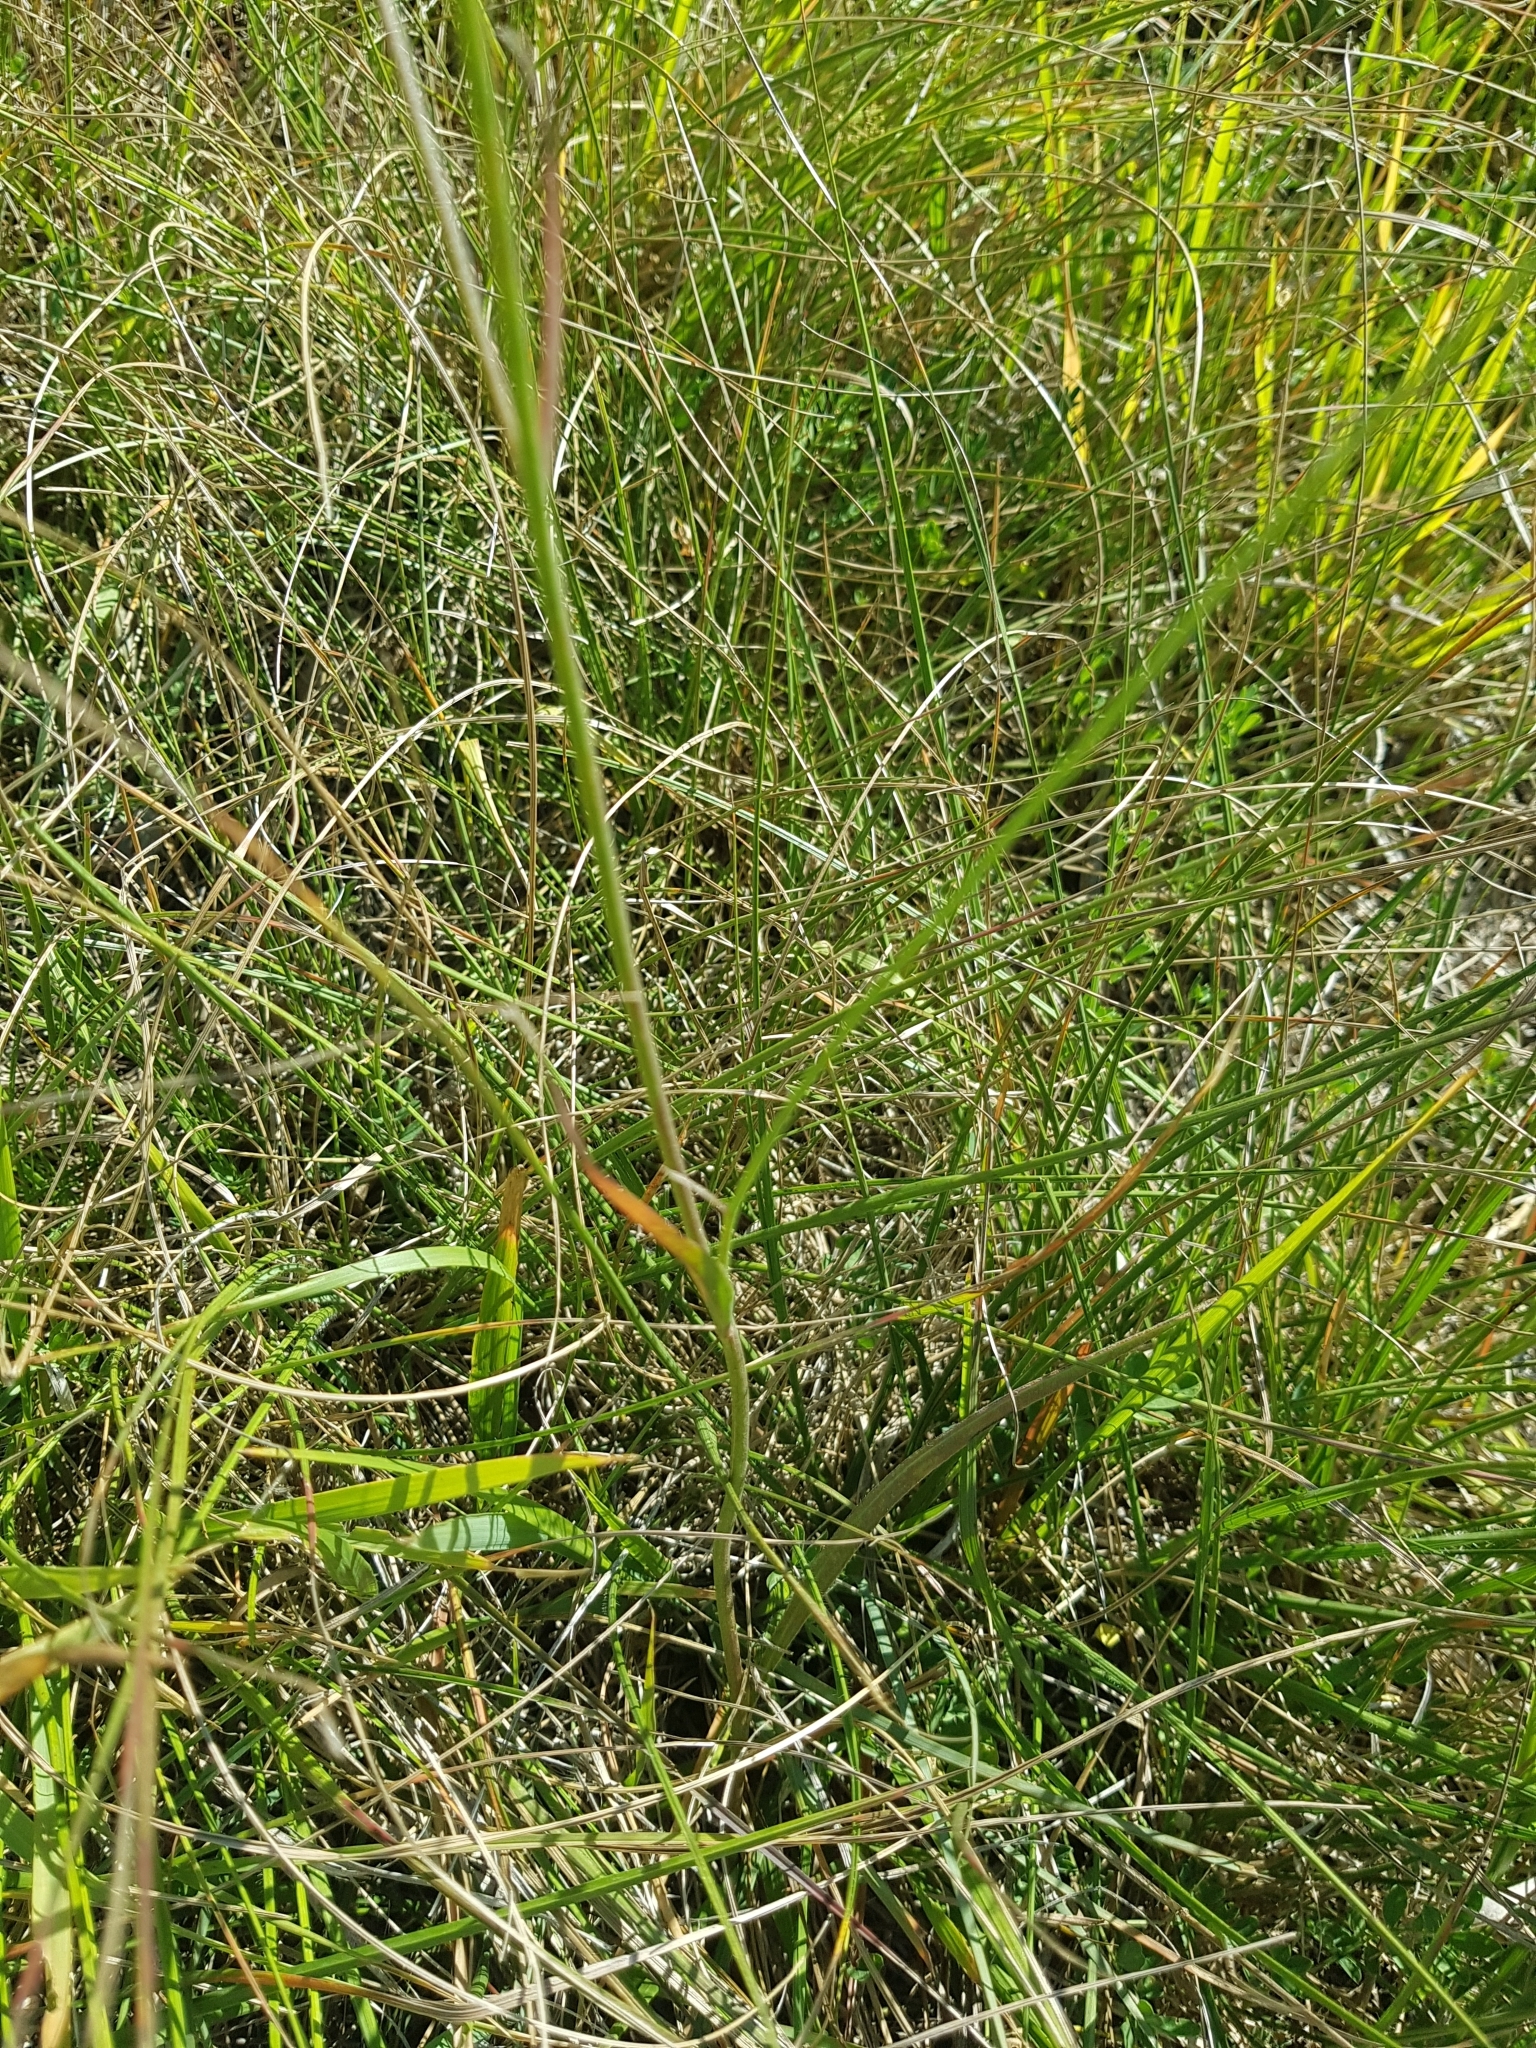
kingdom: Plantae
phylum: Tracheophyta
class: Magnoliopsida
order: Asterales
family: Asteraceae
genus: Catananche
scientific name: Catananche caerulea
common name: Blue cupidone
